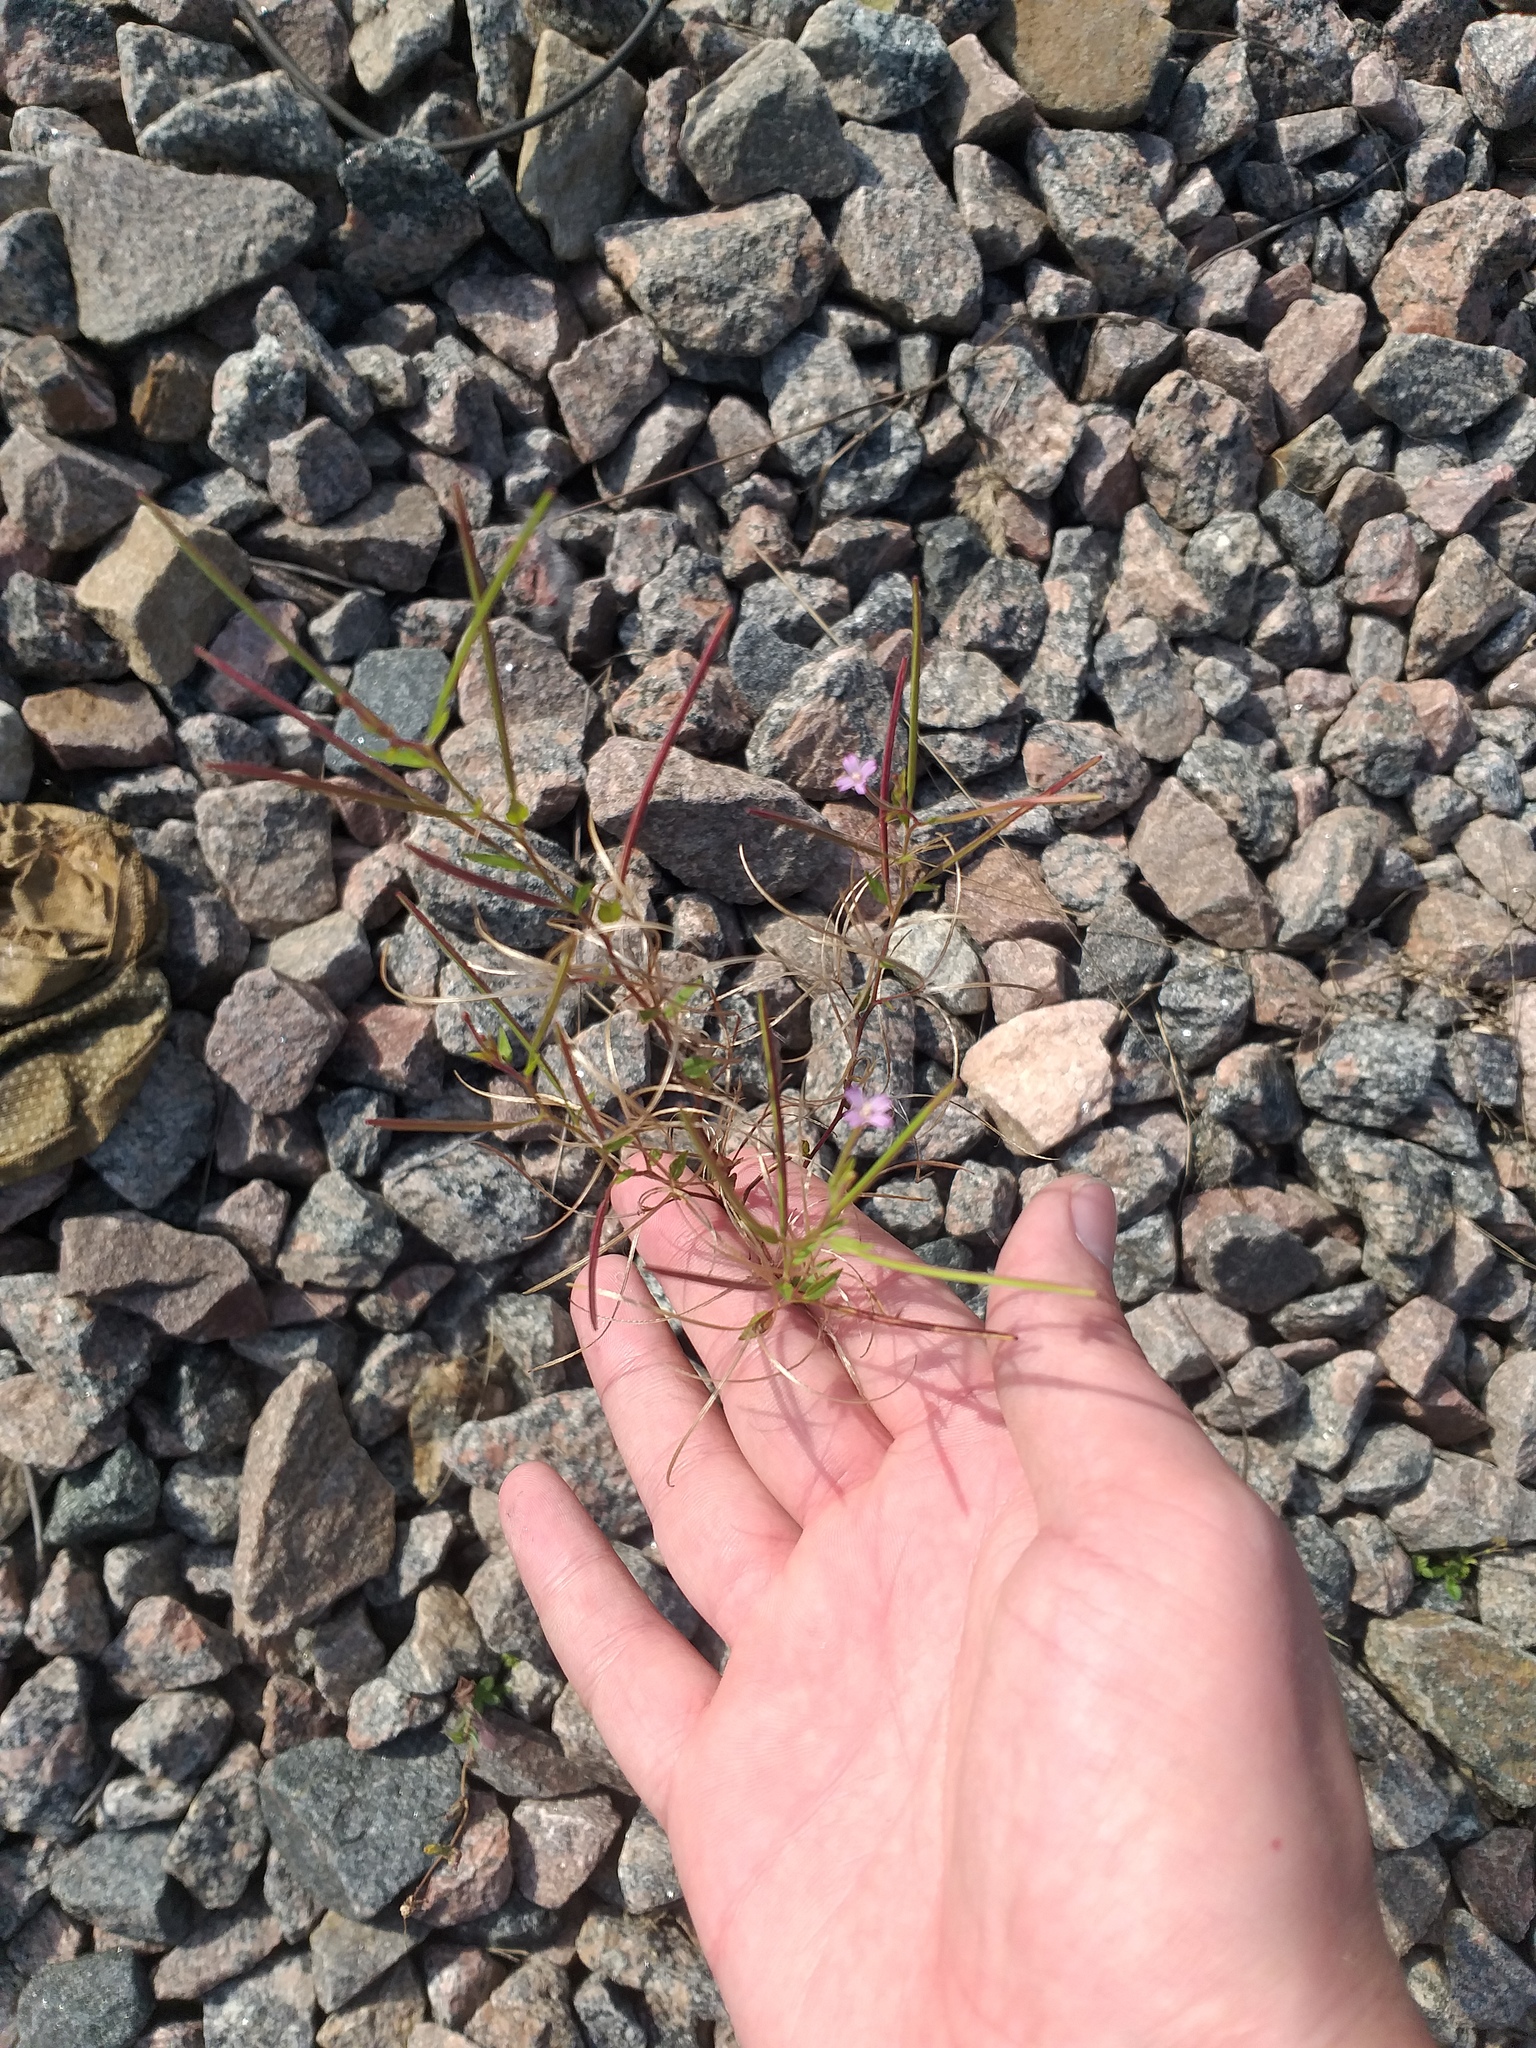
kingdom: Plantae
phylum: Tracheophyta
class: Magnoliopsida
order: Myrtales
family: Onagraceae
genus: Epilobium
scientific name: Epilobium ciliatum
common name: American willowherb
